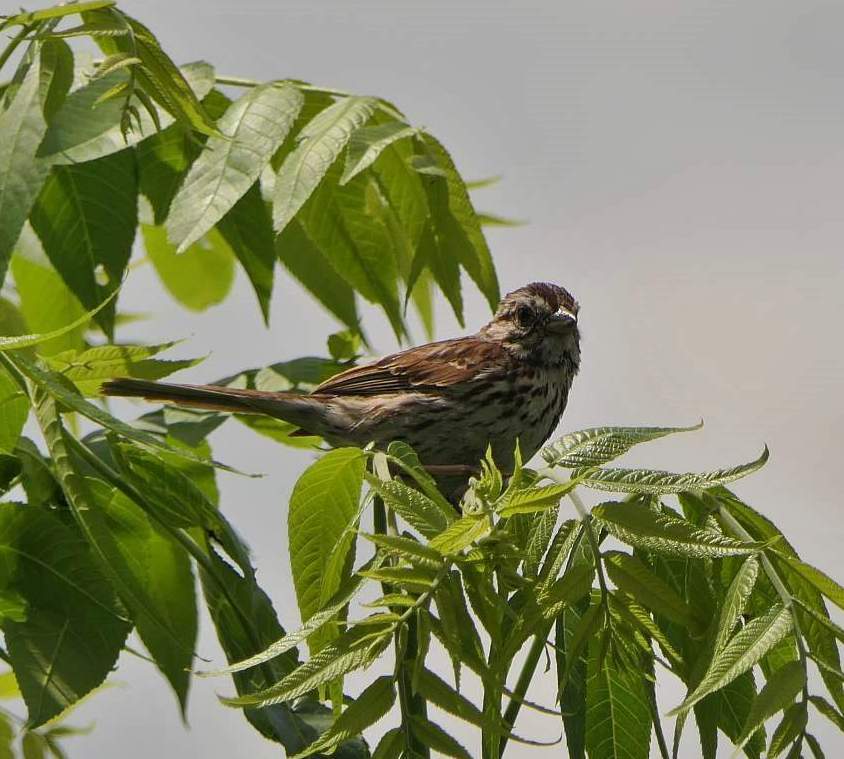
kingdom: Animalia
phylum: Chordata
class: Aves
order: Passeriformes
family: Passerellidae
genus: Melospiza
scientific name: Melospiza melodia
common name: Song sparrow
